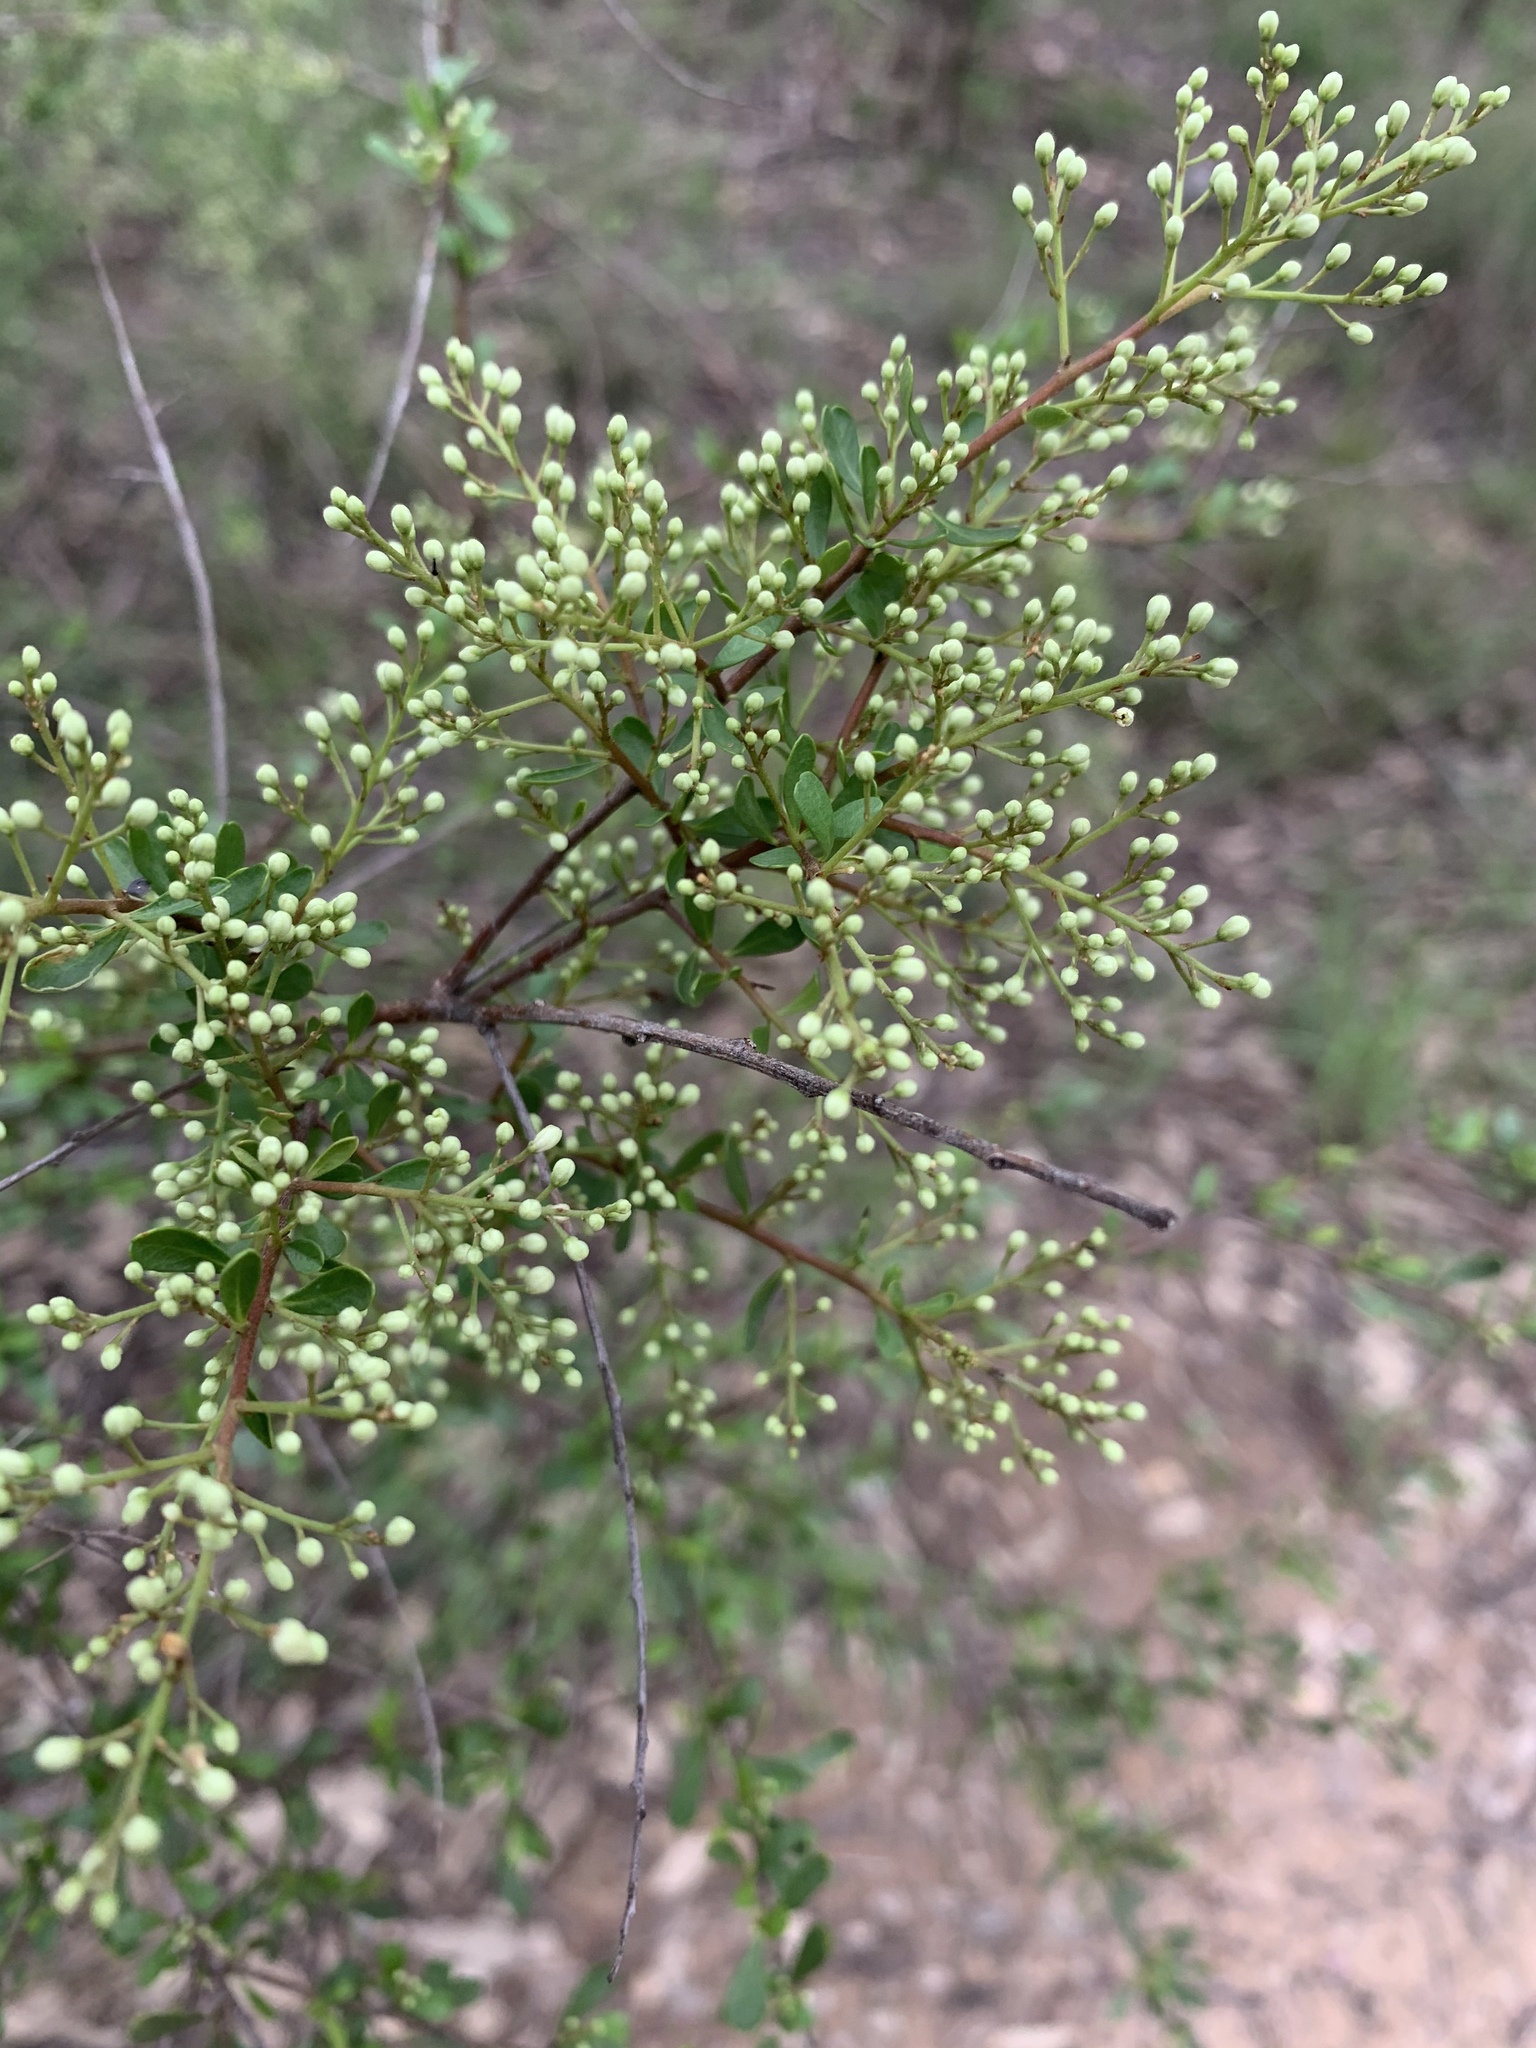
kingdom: Plantae
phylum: Tracheophyta
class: Magnoliopsida
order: Apiales
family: Pittosporaceae
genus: Bursaria
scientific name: Bursaria spinosa
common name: Australian blackthorn
